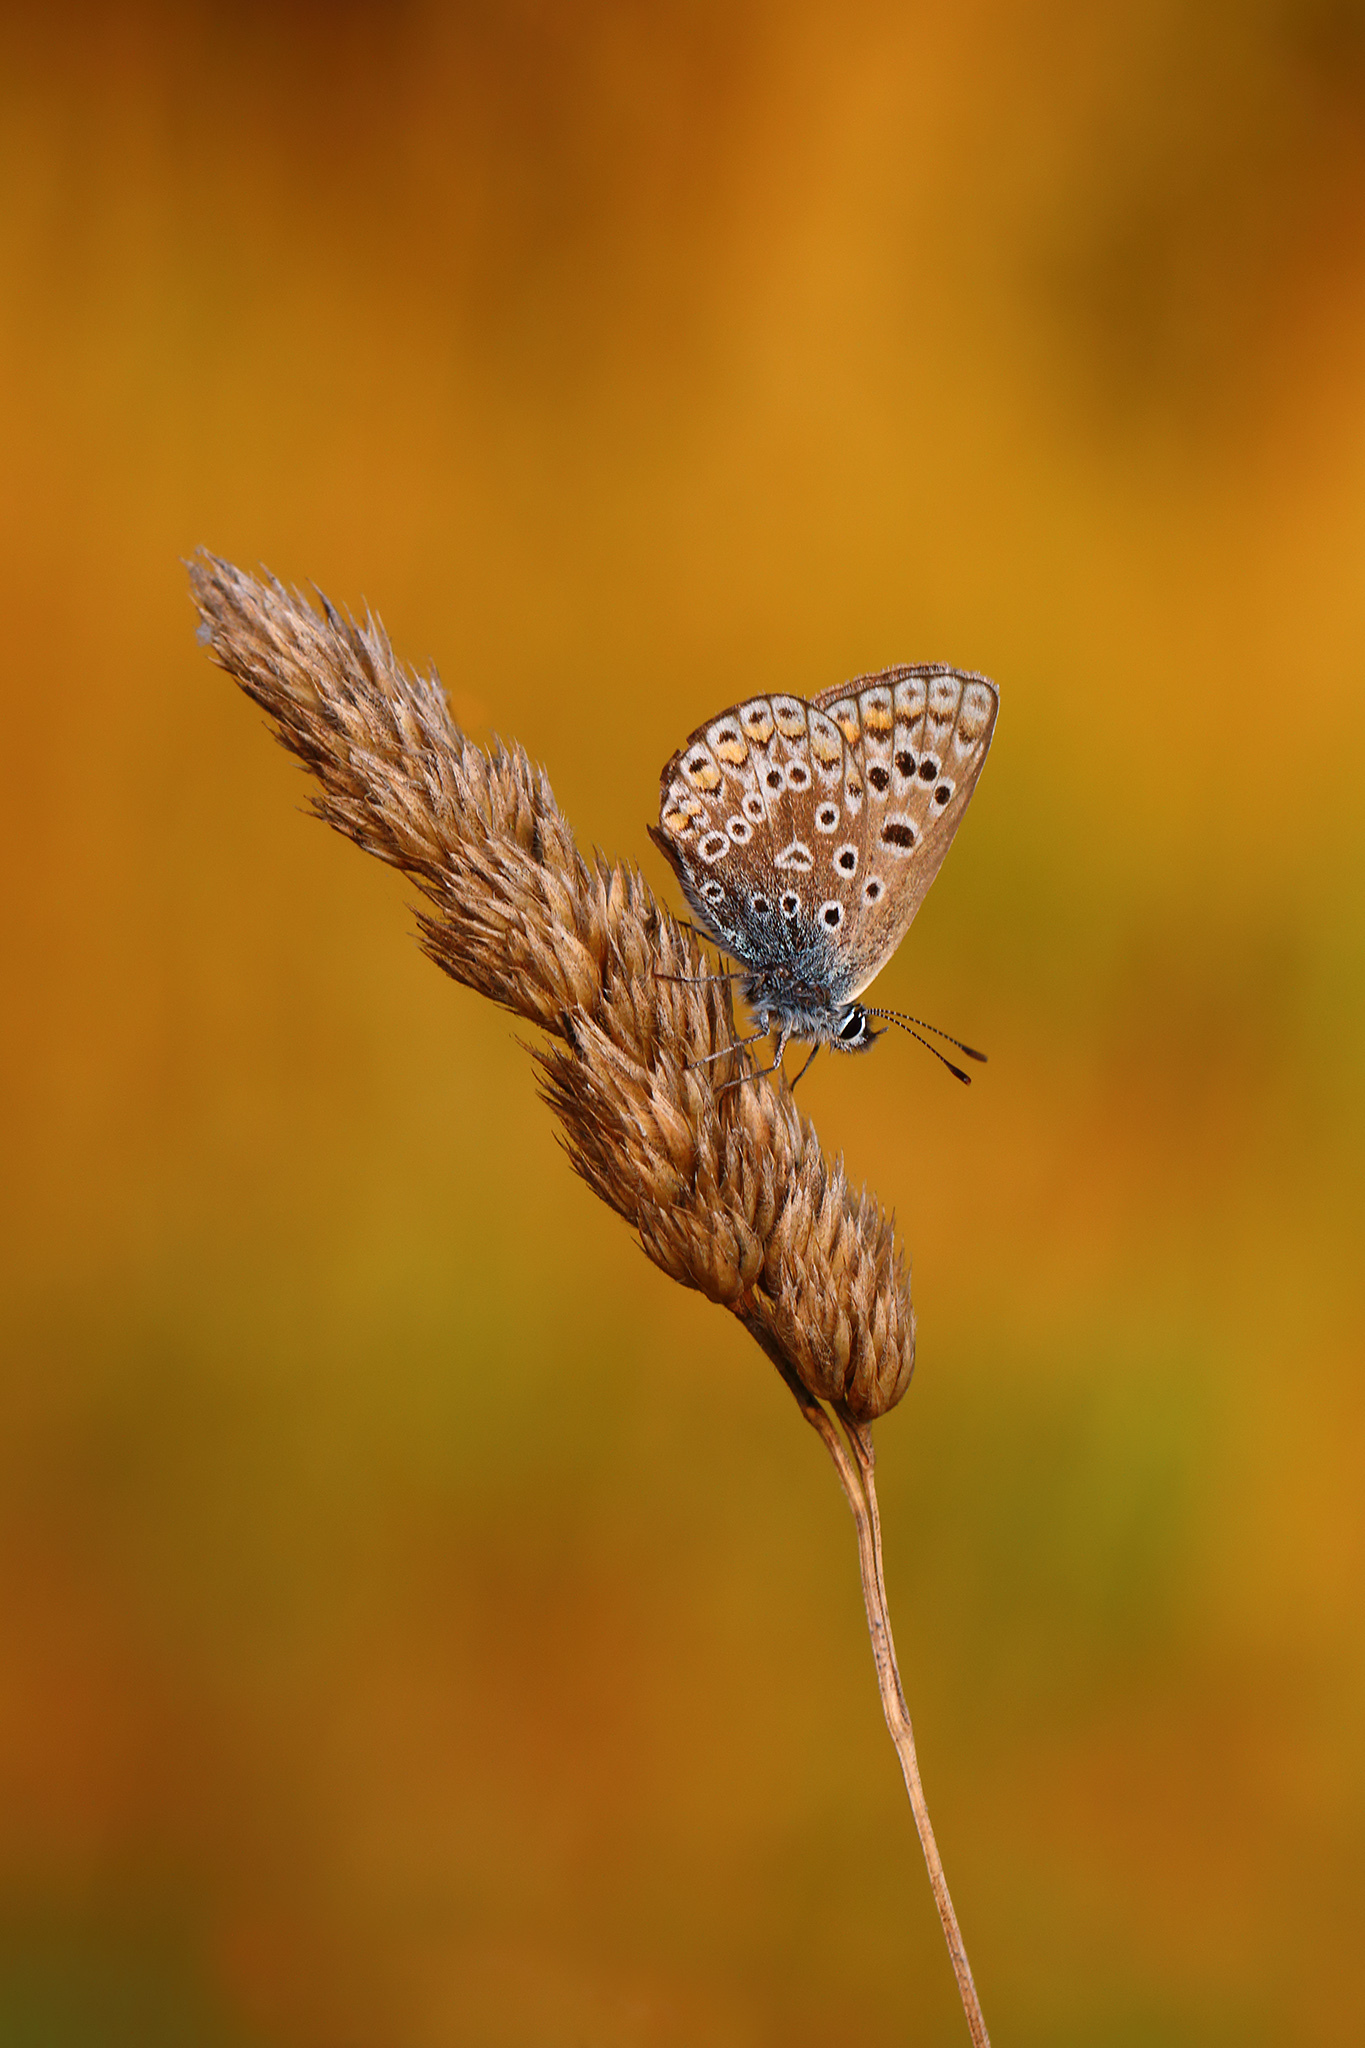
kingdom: Animalia
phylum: Arthropoda
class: Insecta
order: Lepidoptera
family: Lycaenidae
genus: Polyommatus
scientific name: Polyommatus icarus
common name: Common blue
